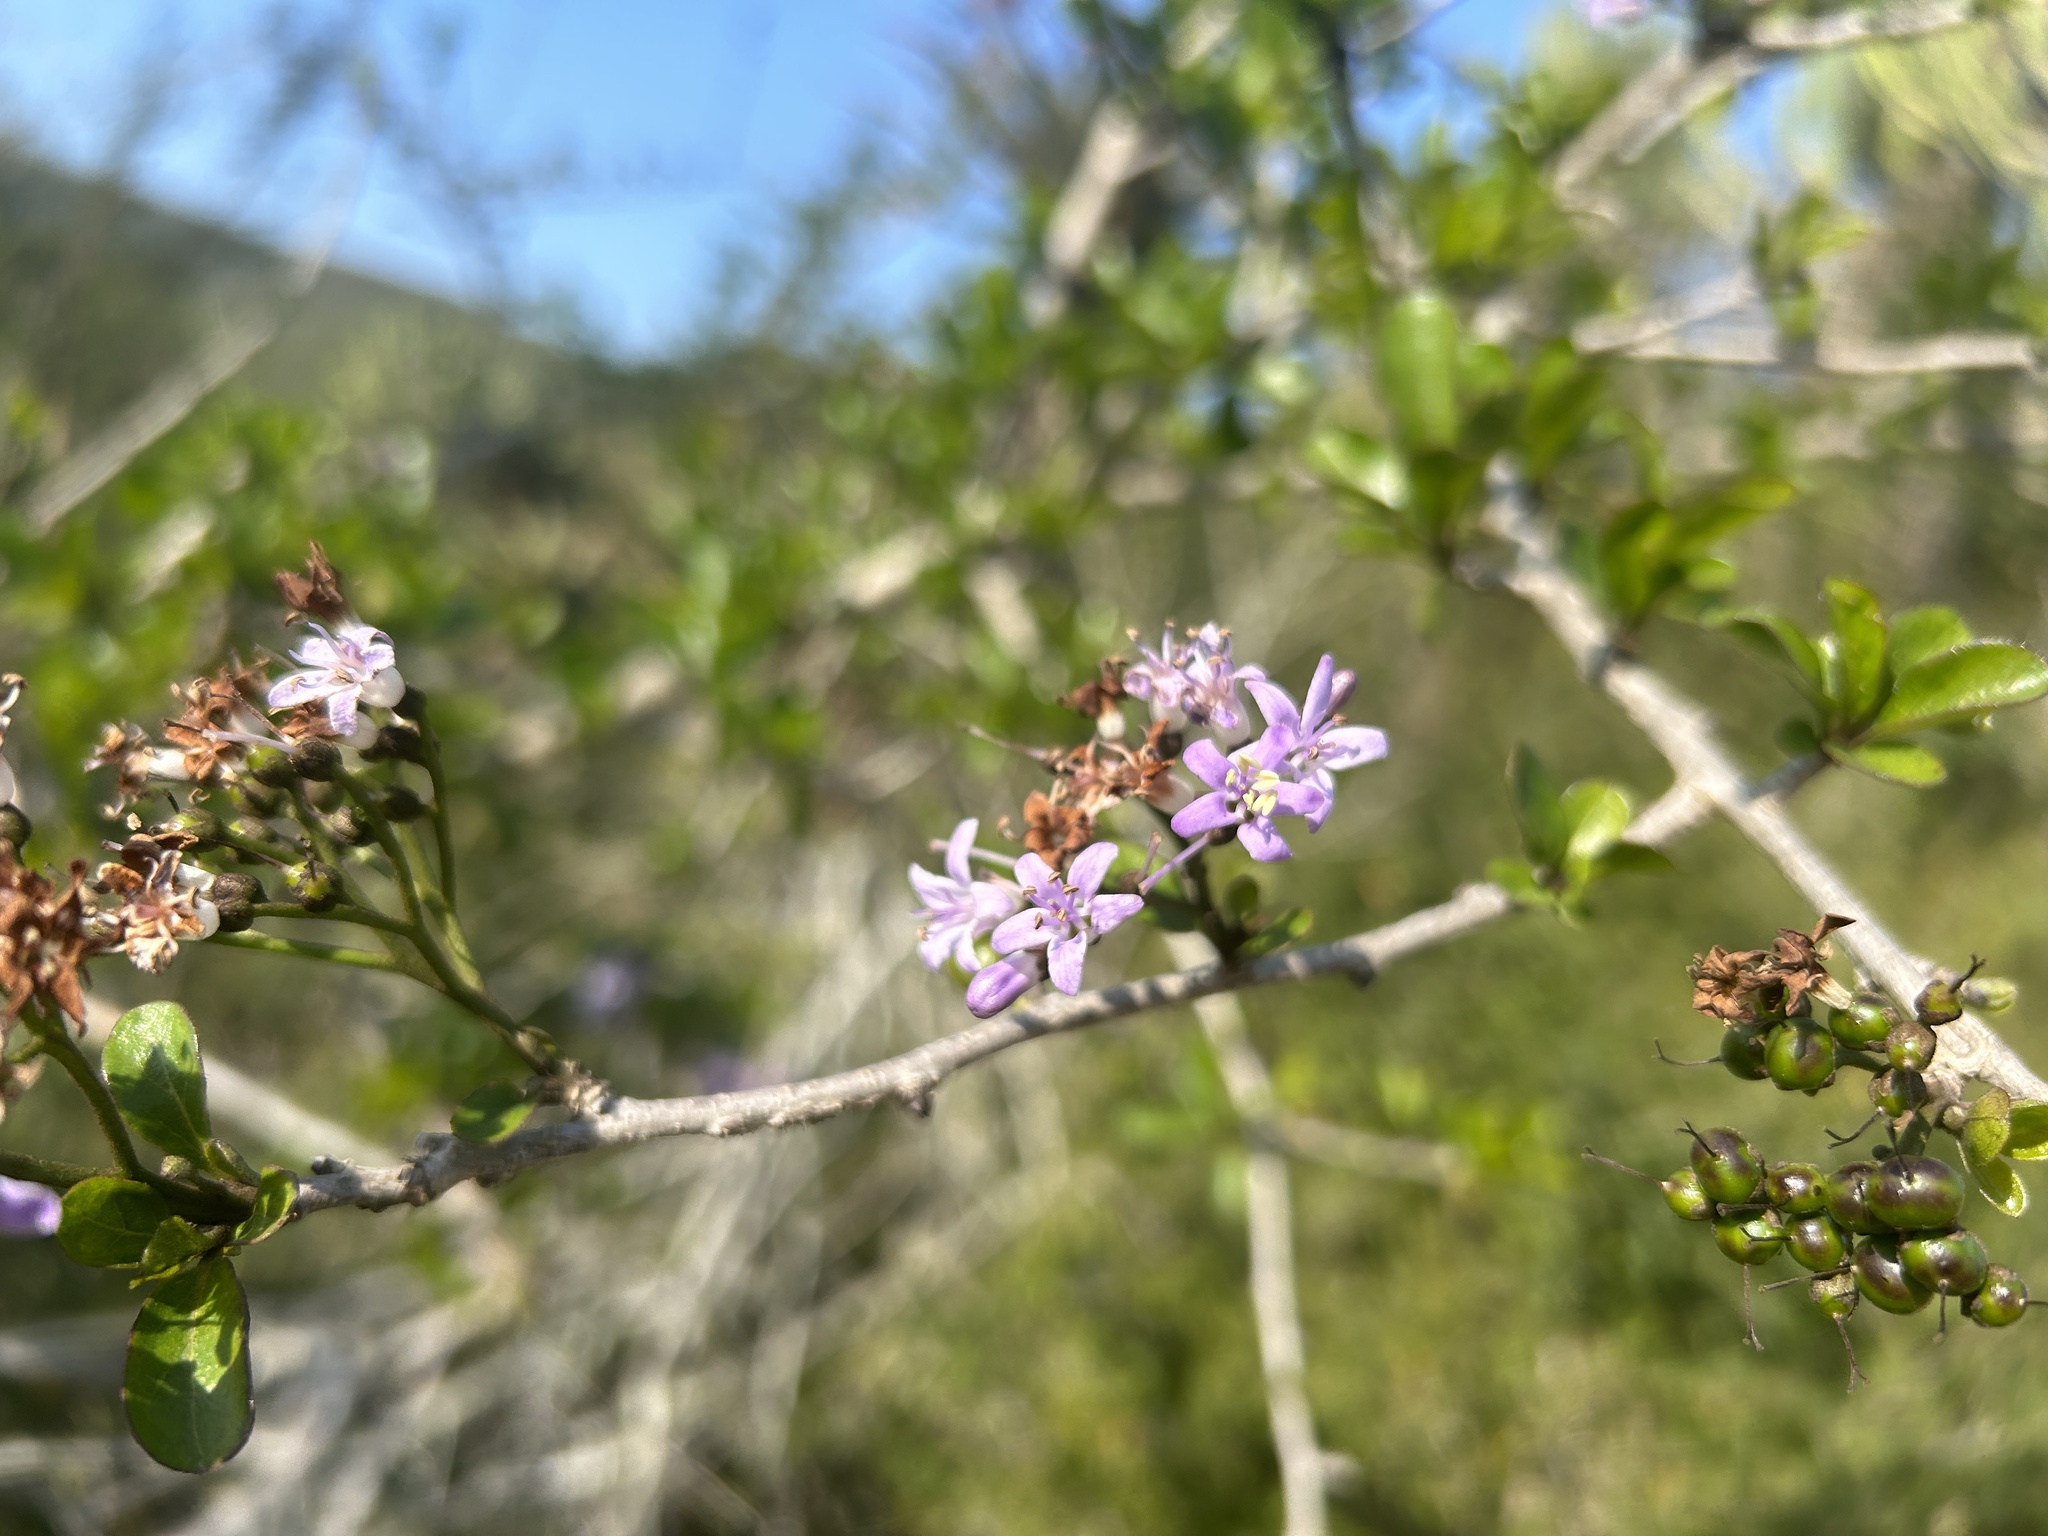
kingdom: Plantae
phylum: Tracheophyta
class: Magnoliopsida
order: Boraginales
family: Ehretiaceae
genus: Ehretia
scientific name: Ehretia rigida
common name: Cape lilac
